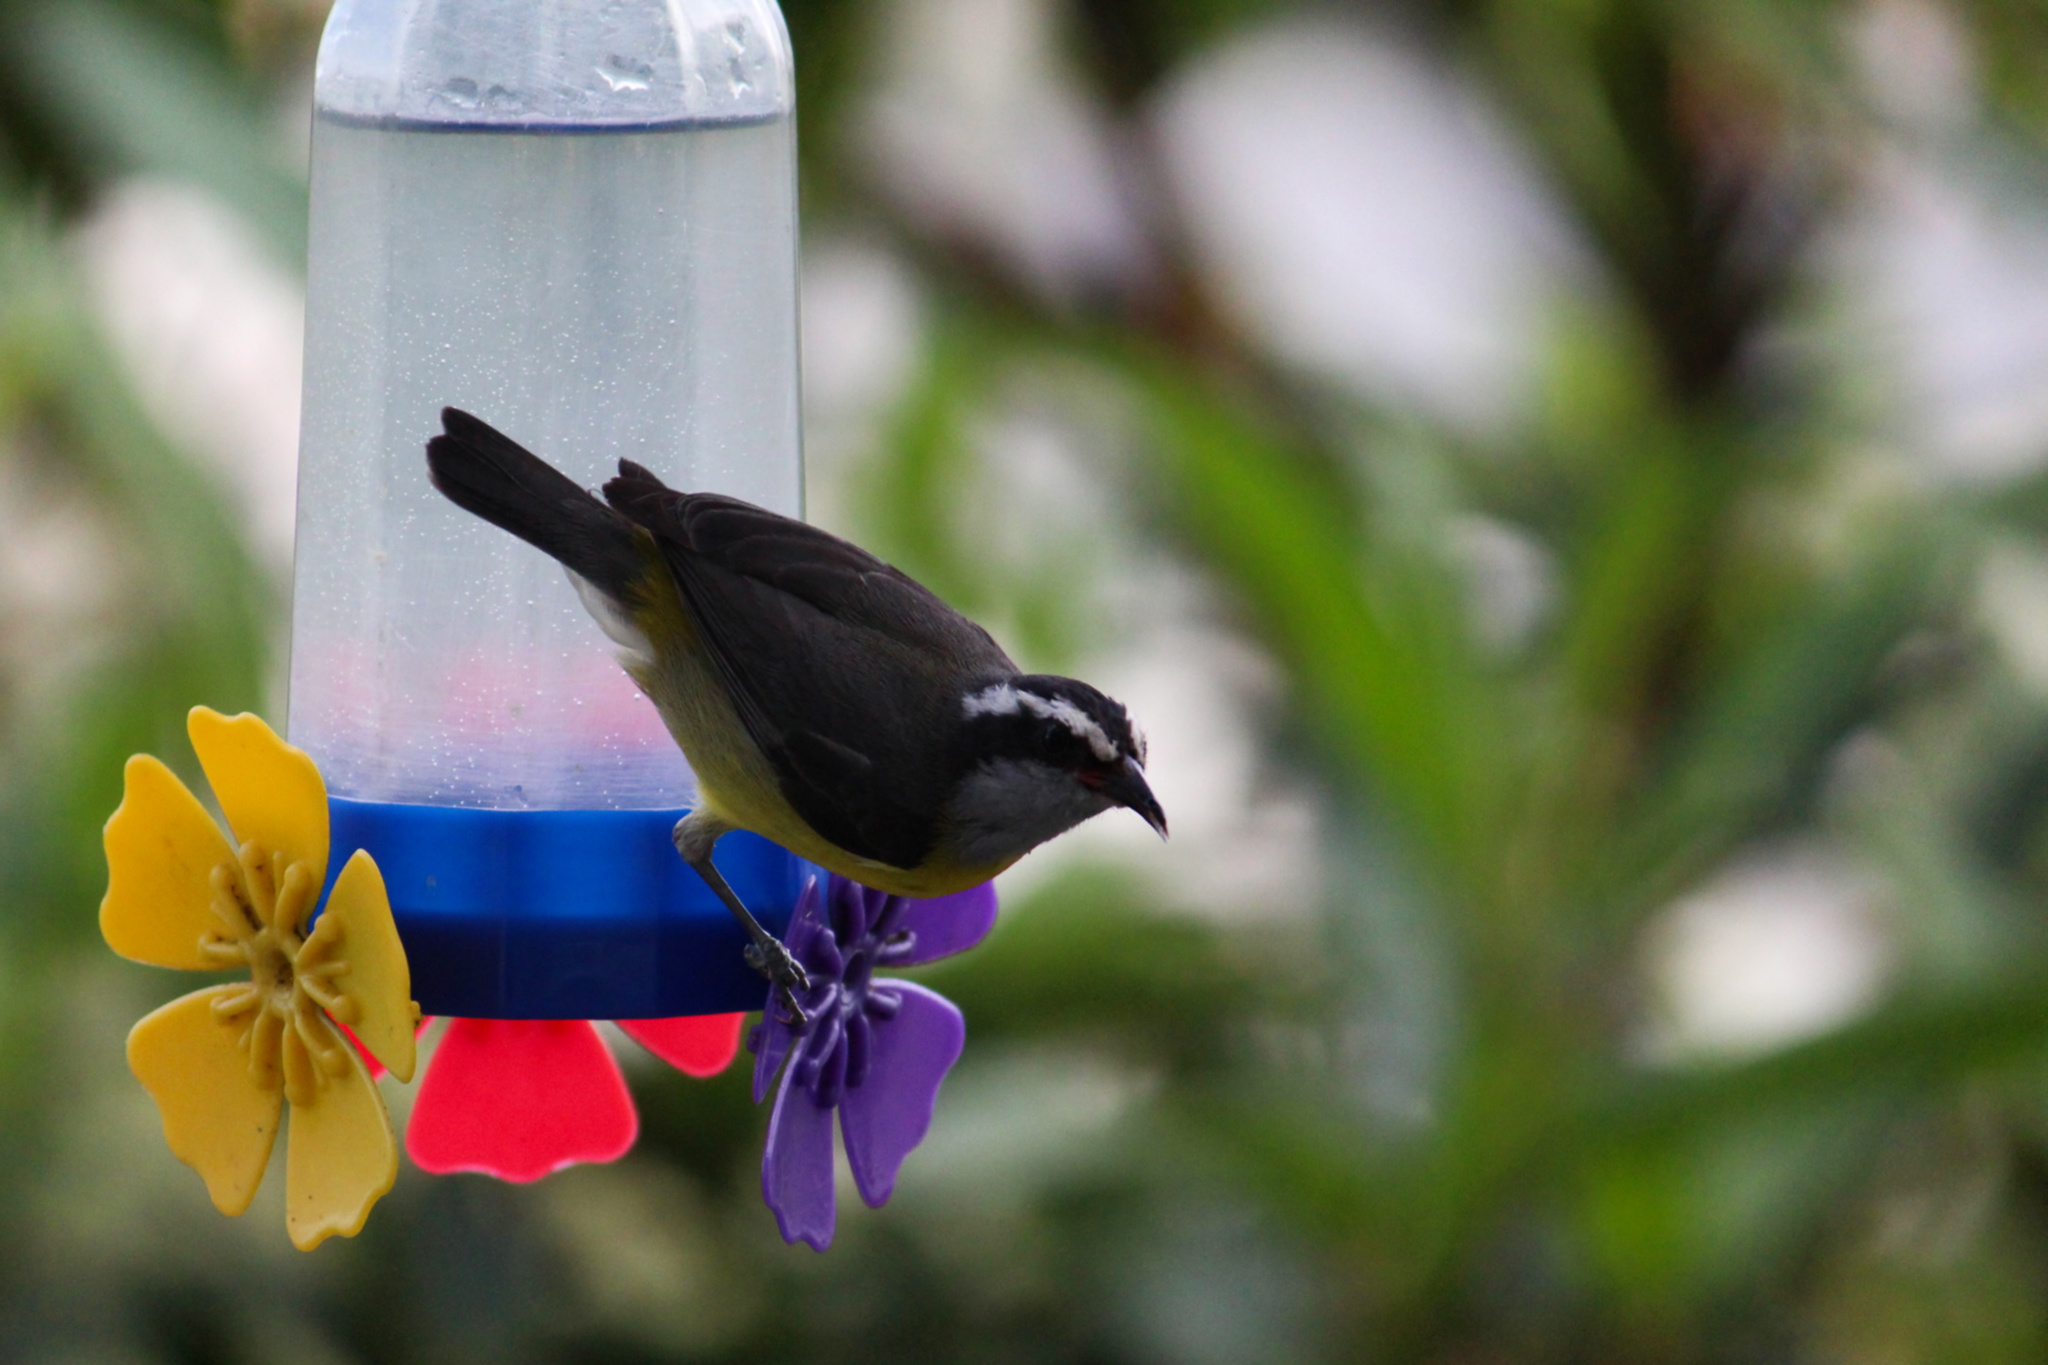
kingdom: Animalia
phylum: Chordata
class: Aves
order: Passeriformes
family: Thraupidae
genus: Coereba
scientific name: Coereba flaveola
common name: Bananaquit
